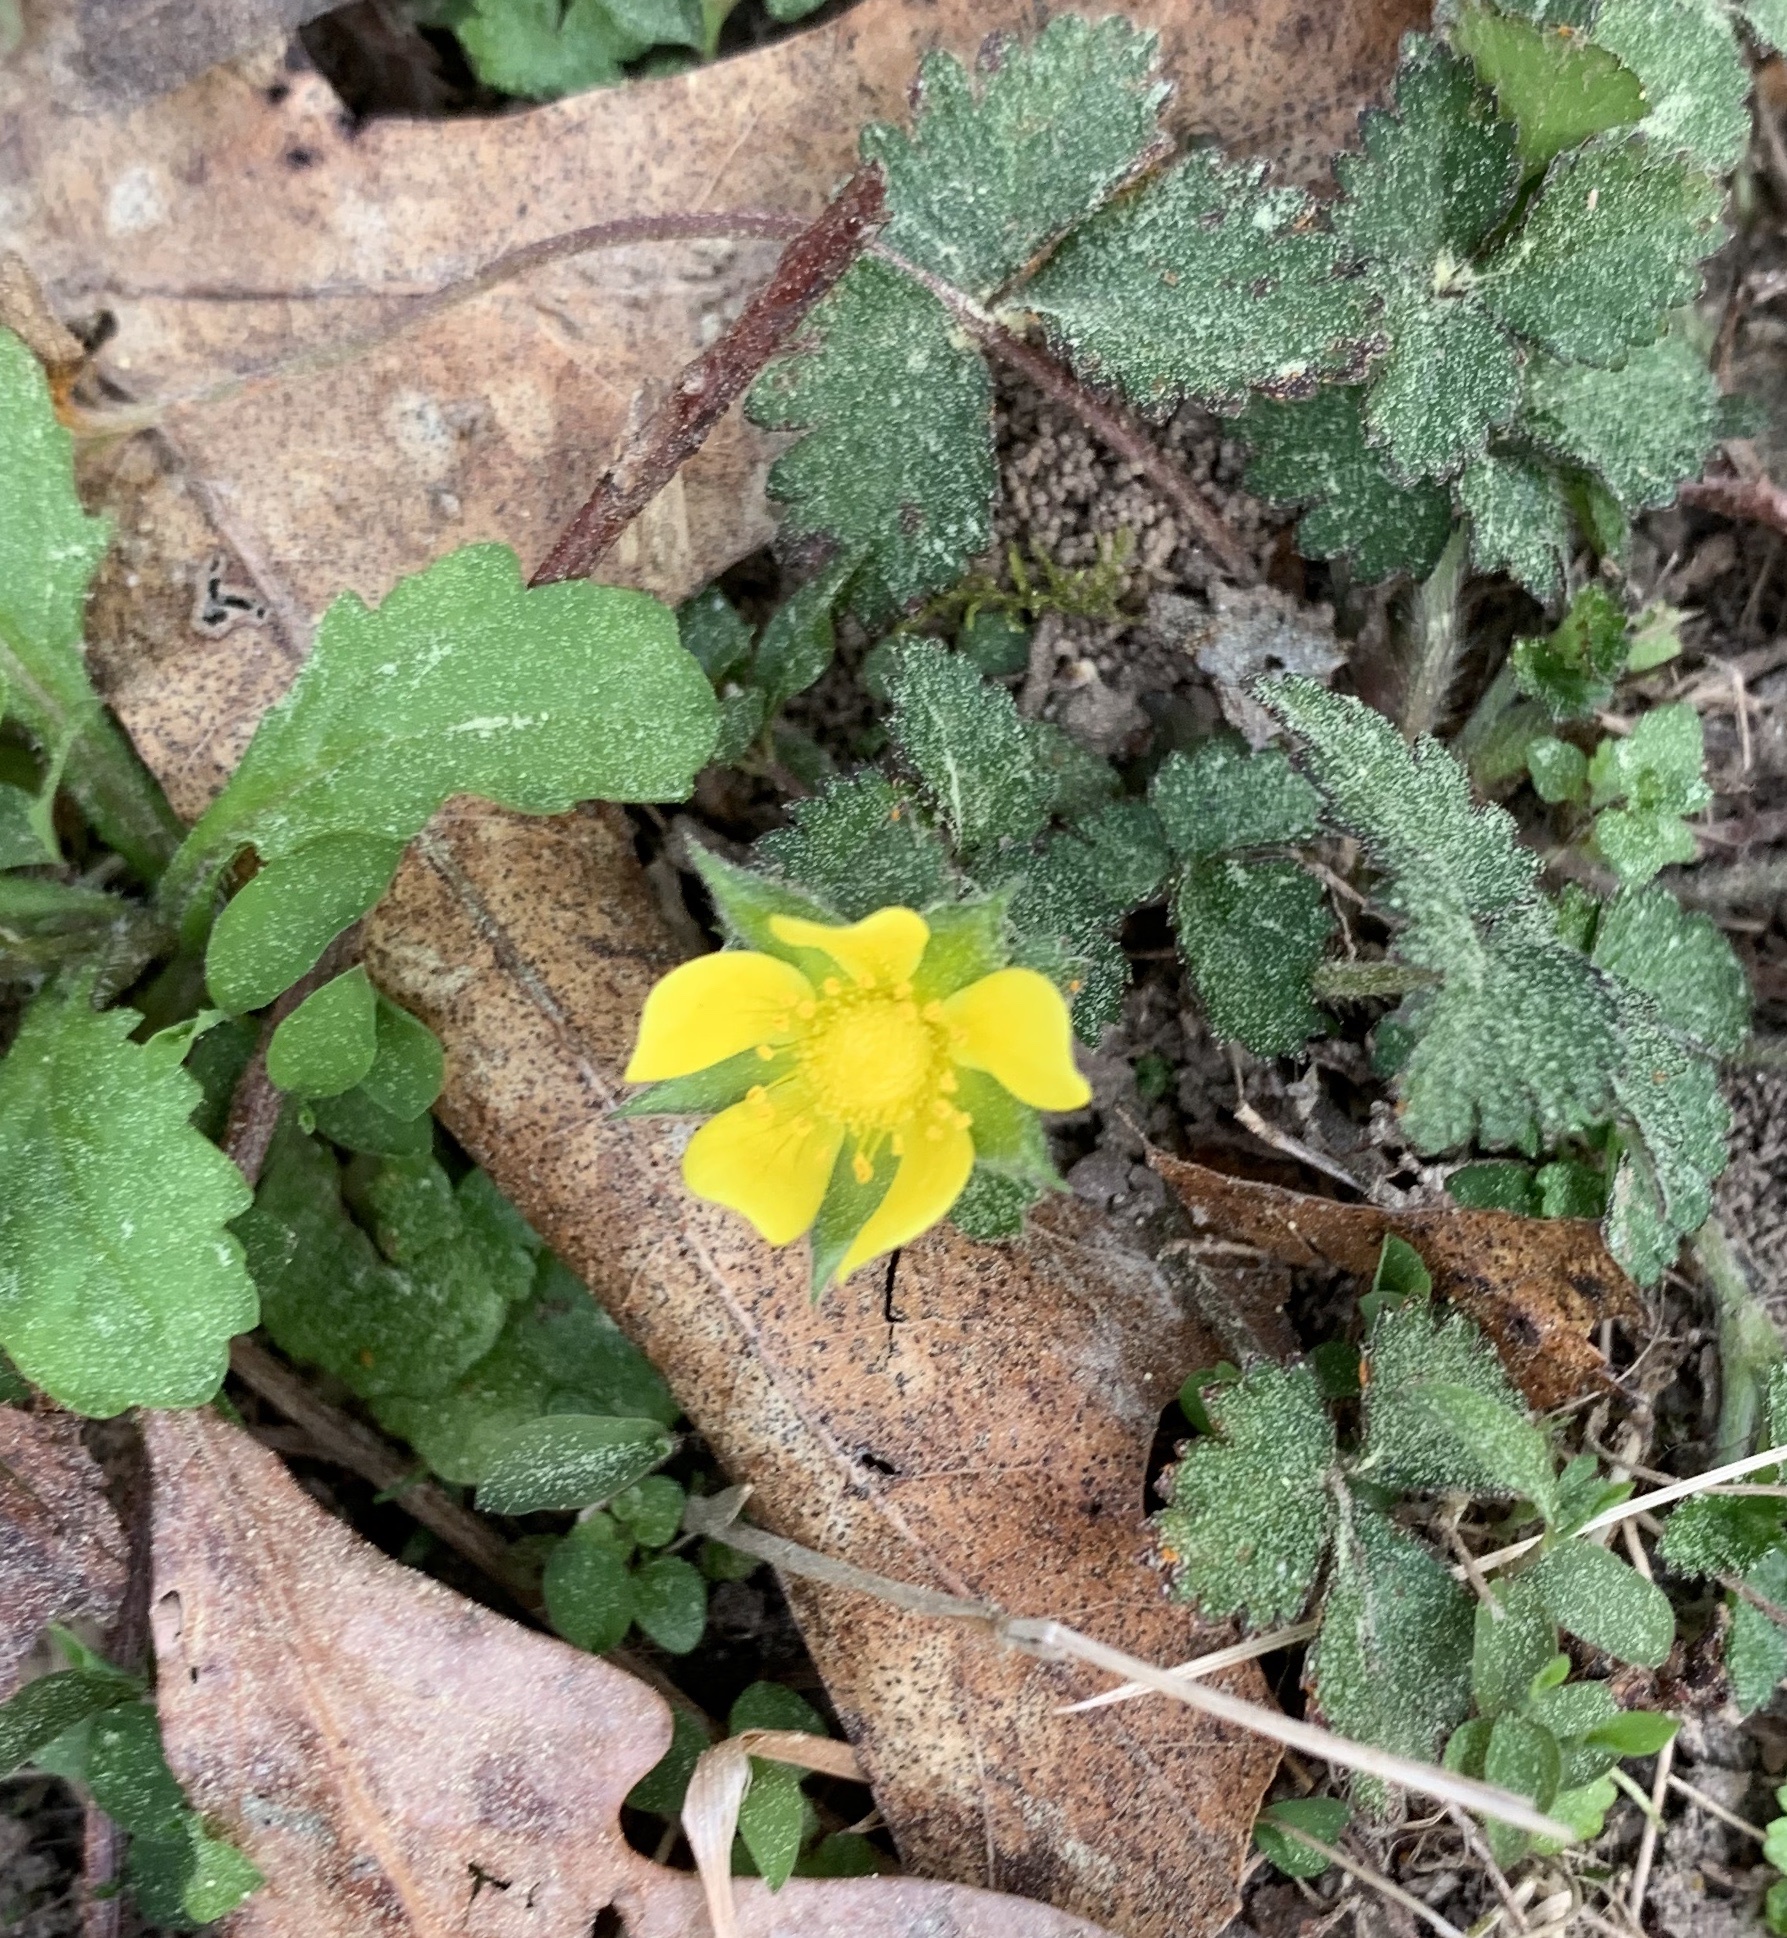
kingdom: Plantae
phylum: Tracheophyta
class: Magnoliopsida
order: Rosales
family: Rosaceae
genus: Potentilla
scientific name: Potentilla indica
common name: Yellow-flowered strawberry
